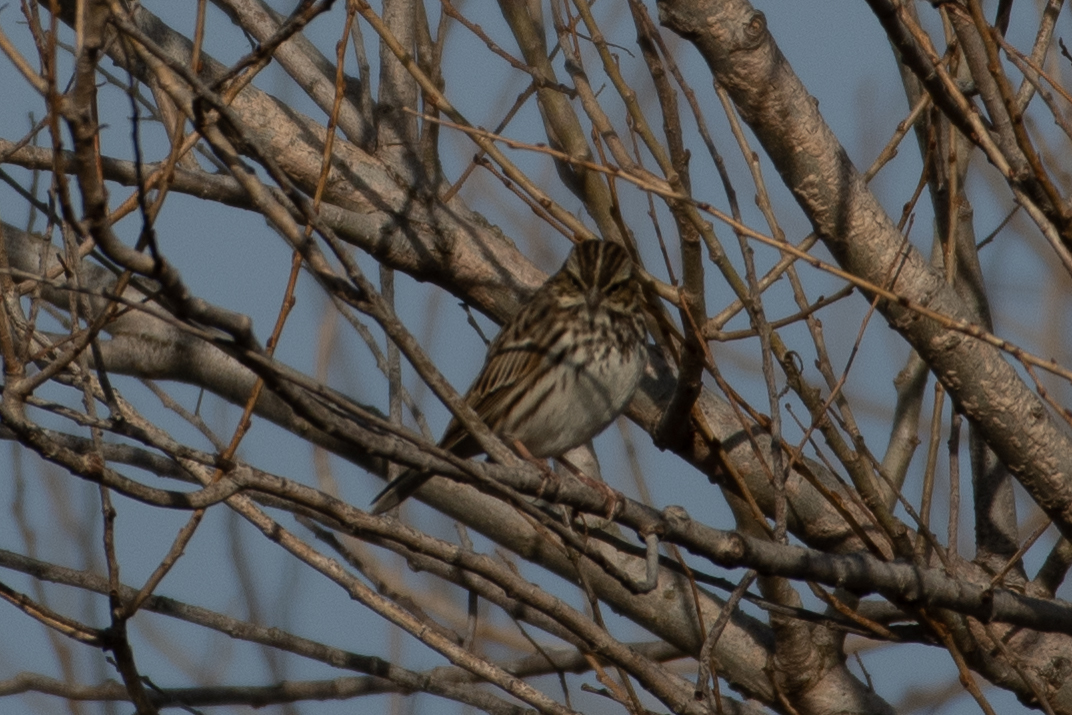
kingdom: Animalia
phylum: Chordata
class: Aves
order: Passeriformes
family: Passerellidae
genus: Passerculus
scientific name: Passerculus sandwichensis
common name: Savannah sparrow
